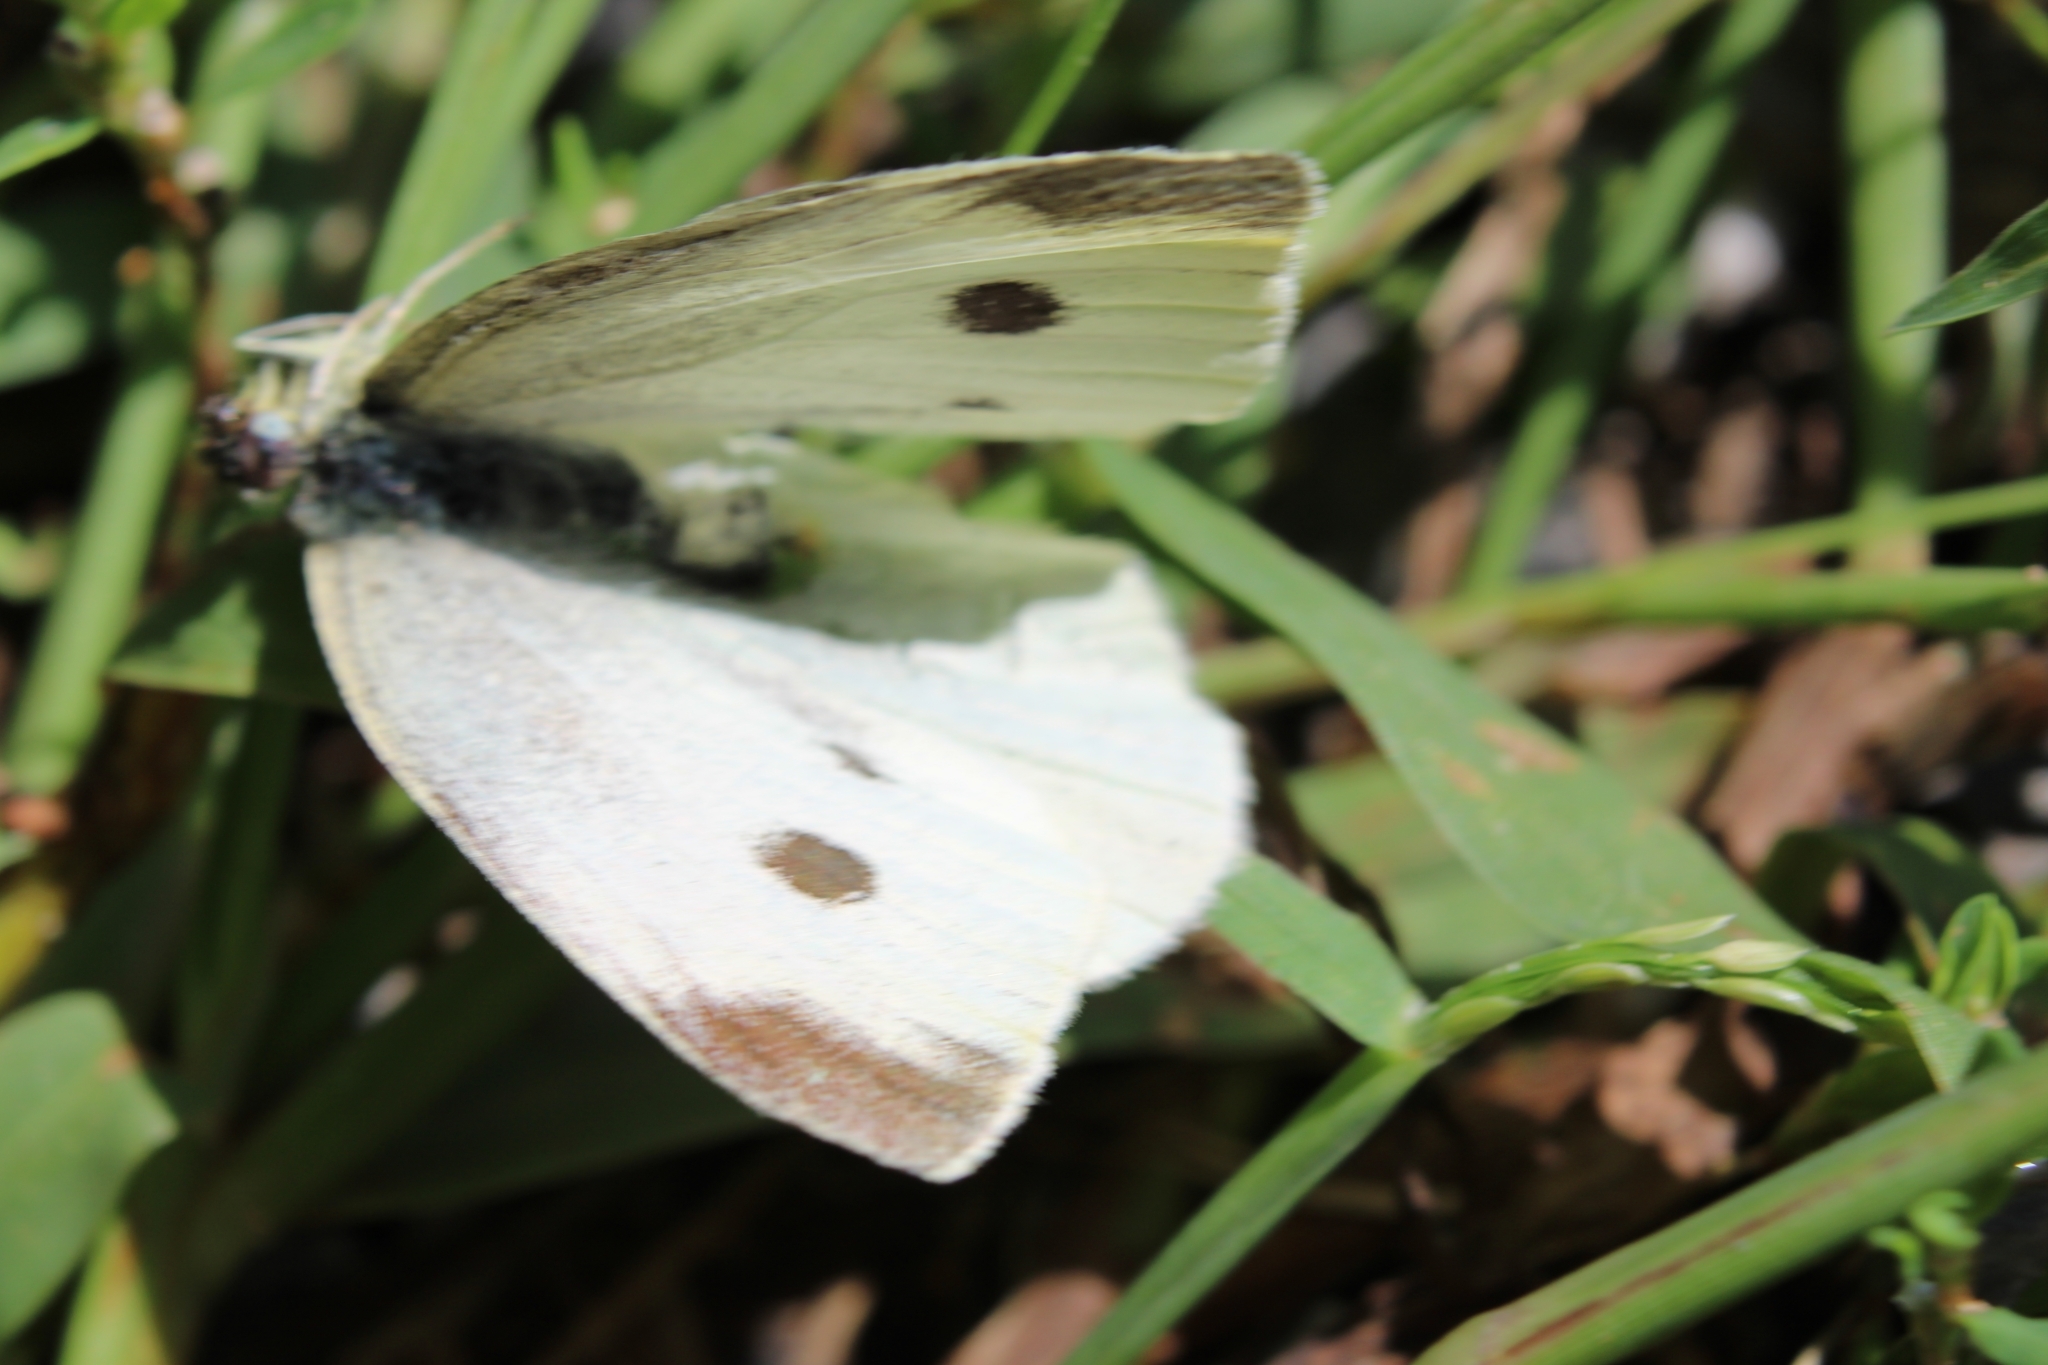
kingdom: Animalia
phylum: Arthropoda
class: Insecta
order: Lepidoptera
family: Pieridae
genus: Pieris
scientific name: Pieris rapae
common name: Small white
